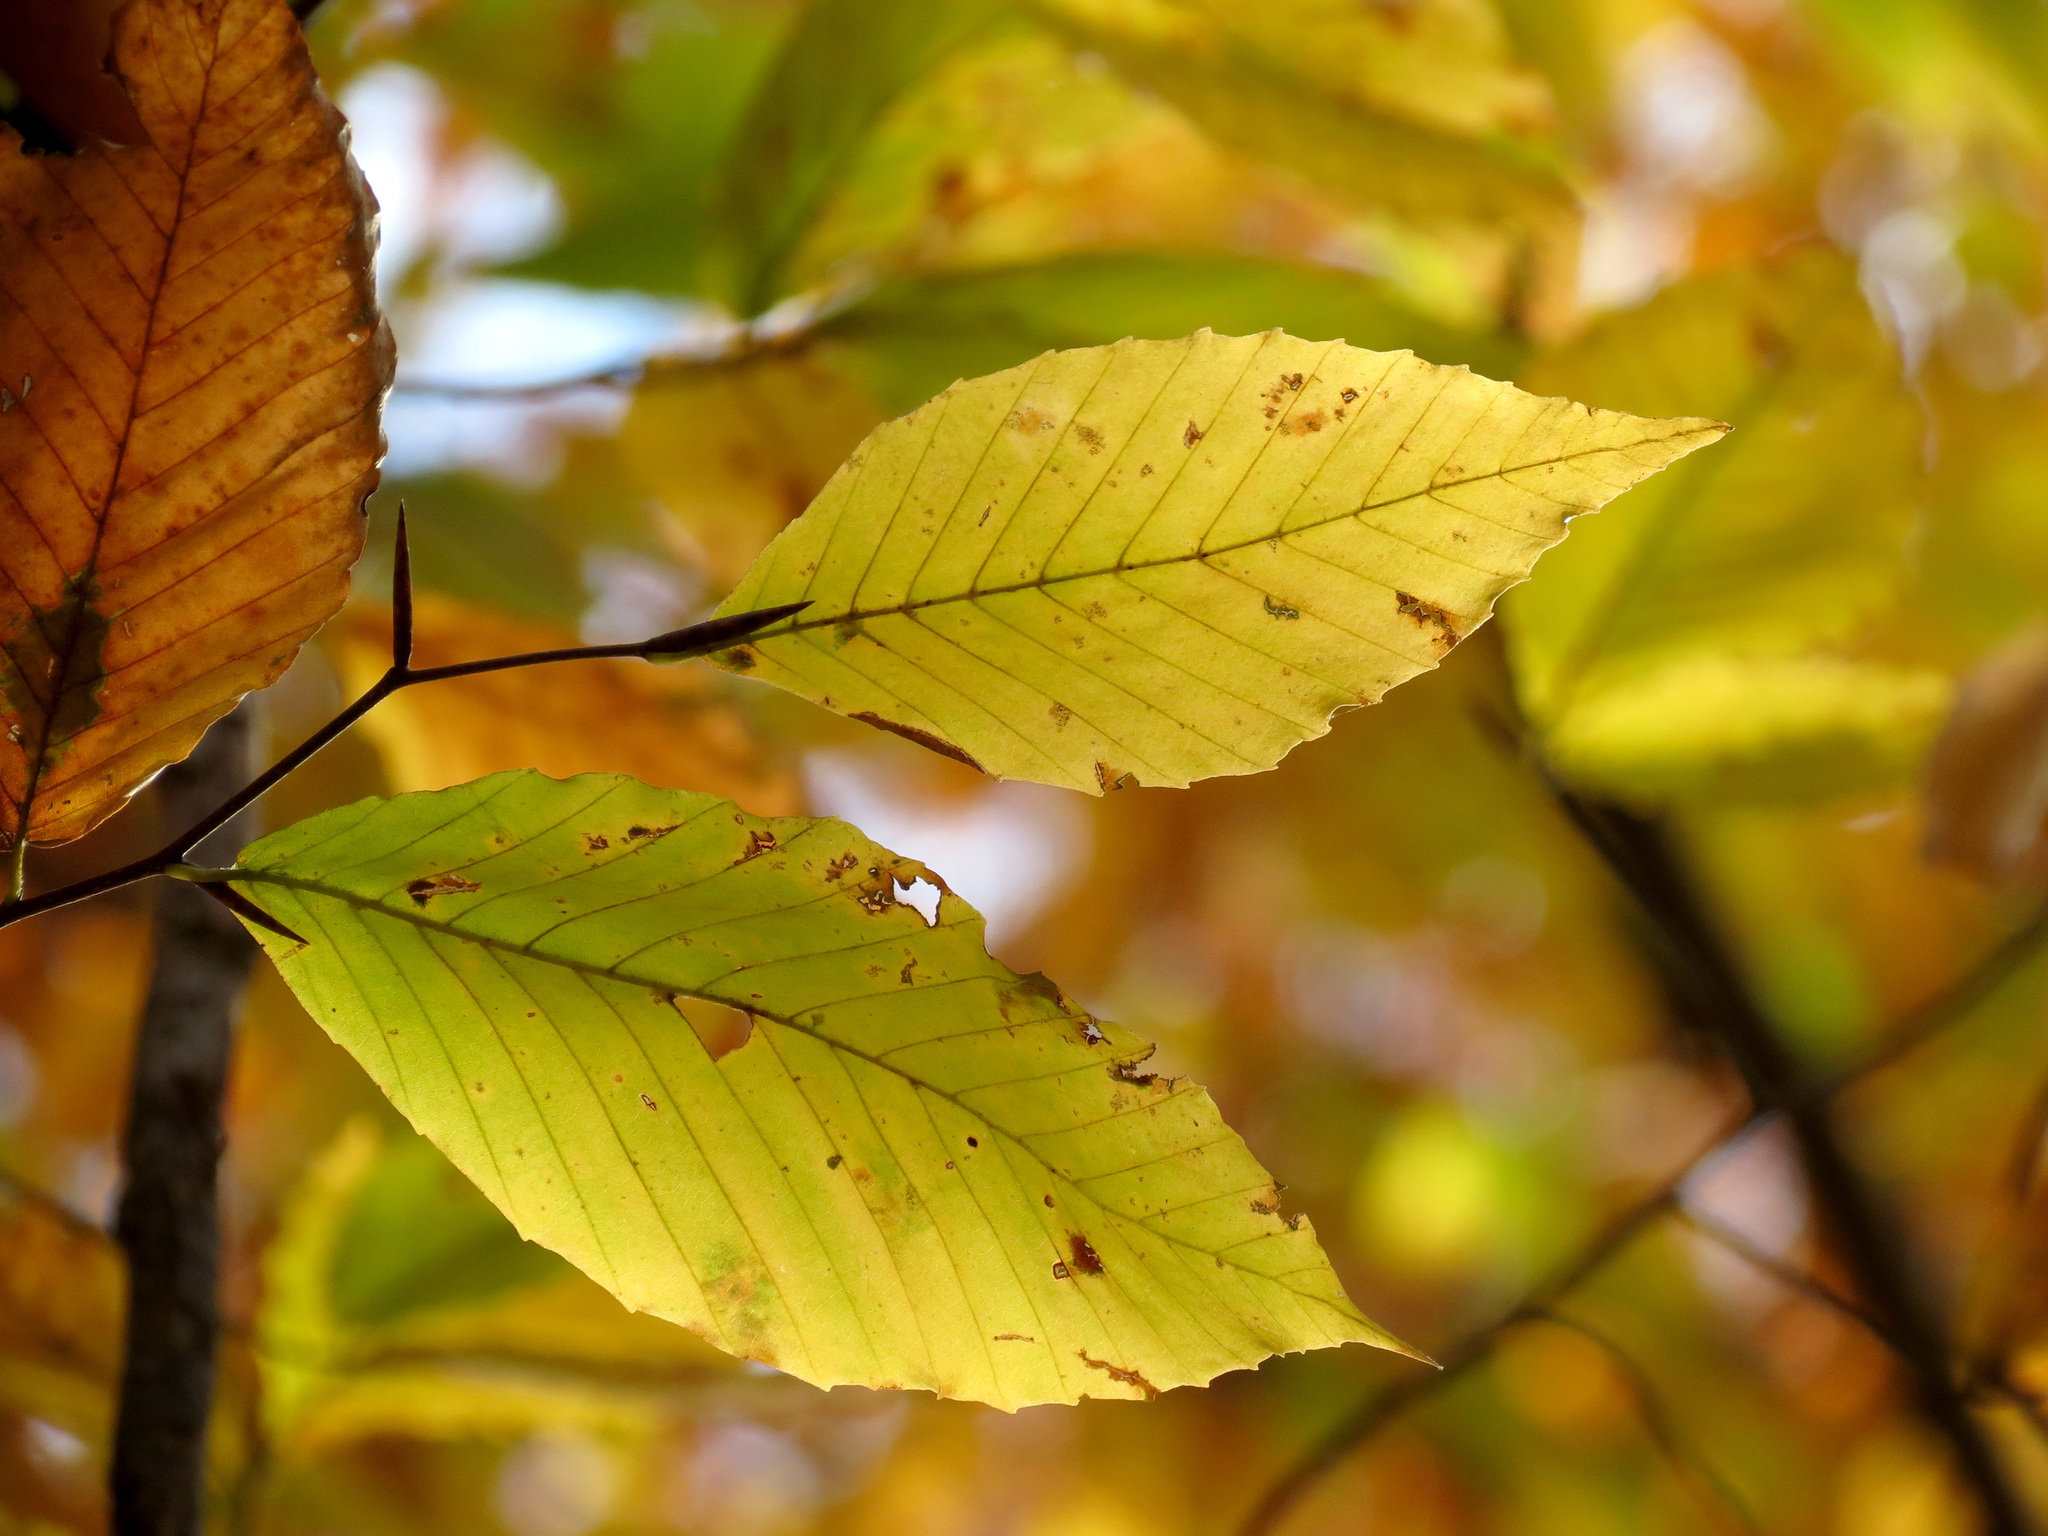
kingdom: Plantae
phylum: Tracheophyta
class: Magnoliopsida
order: Fagales
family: Fagaceae
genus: Fagus
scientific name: Fagus grandifolia
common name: American beech
